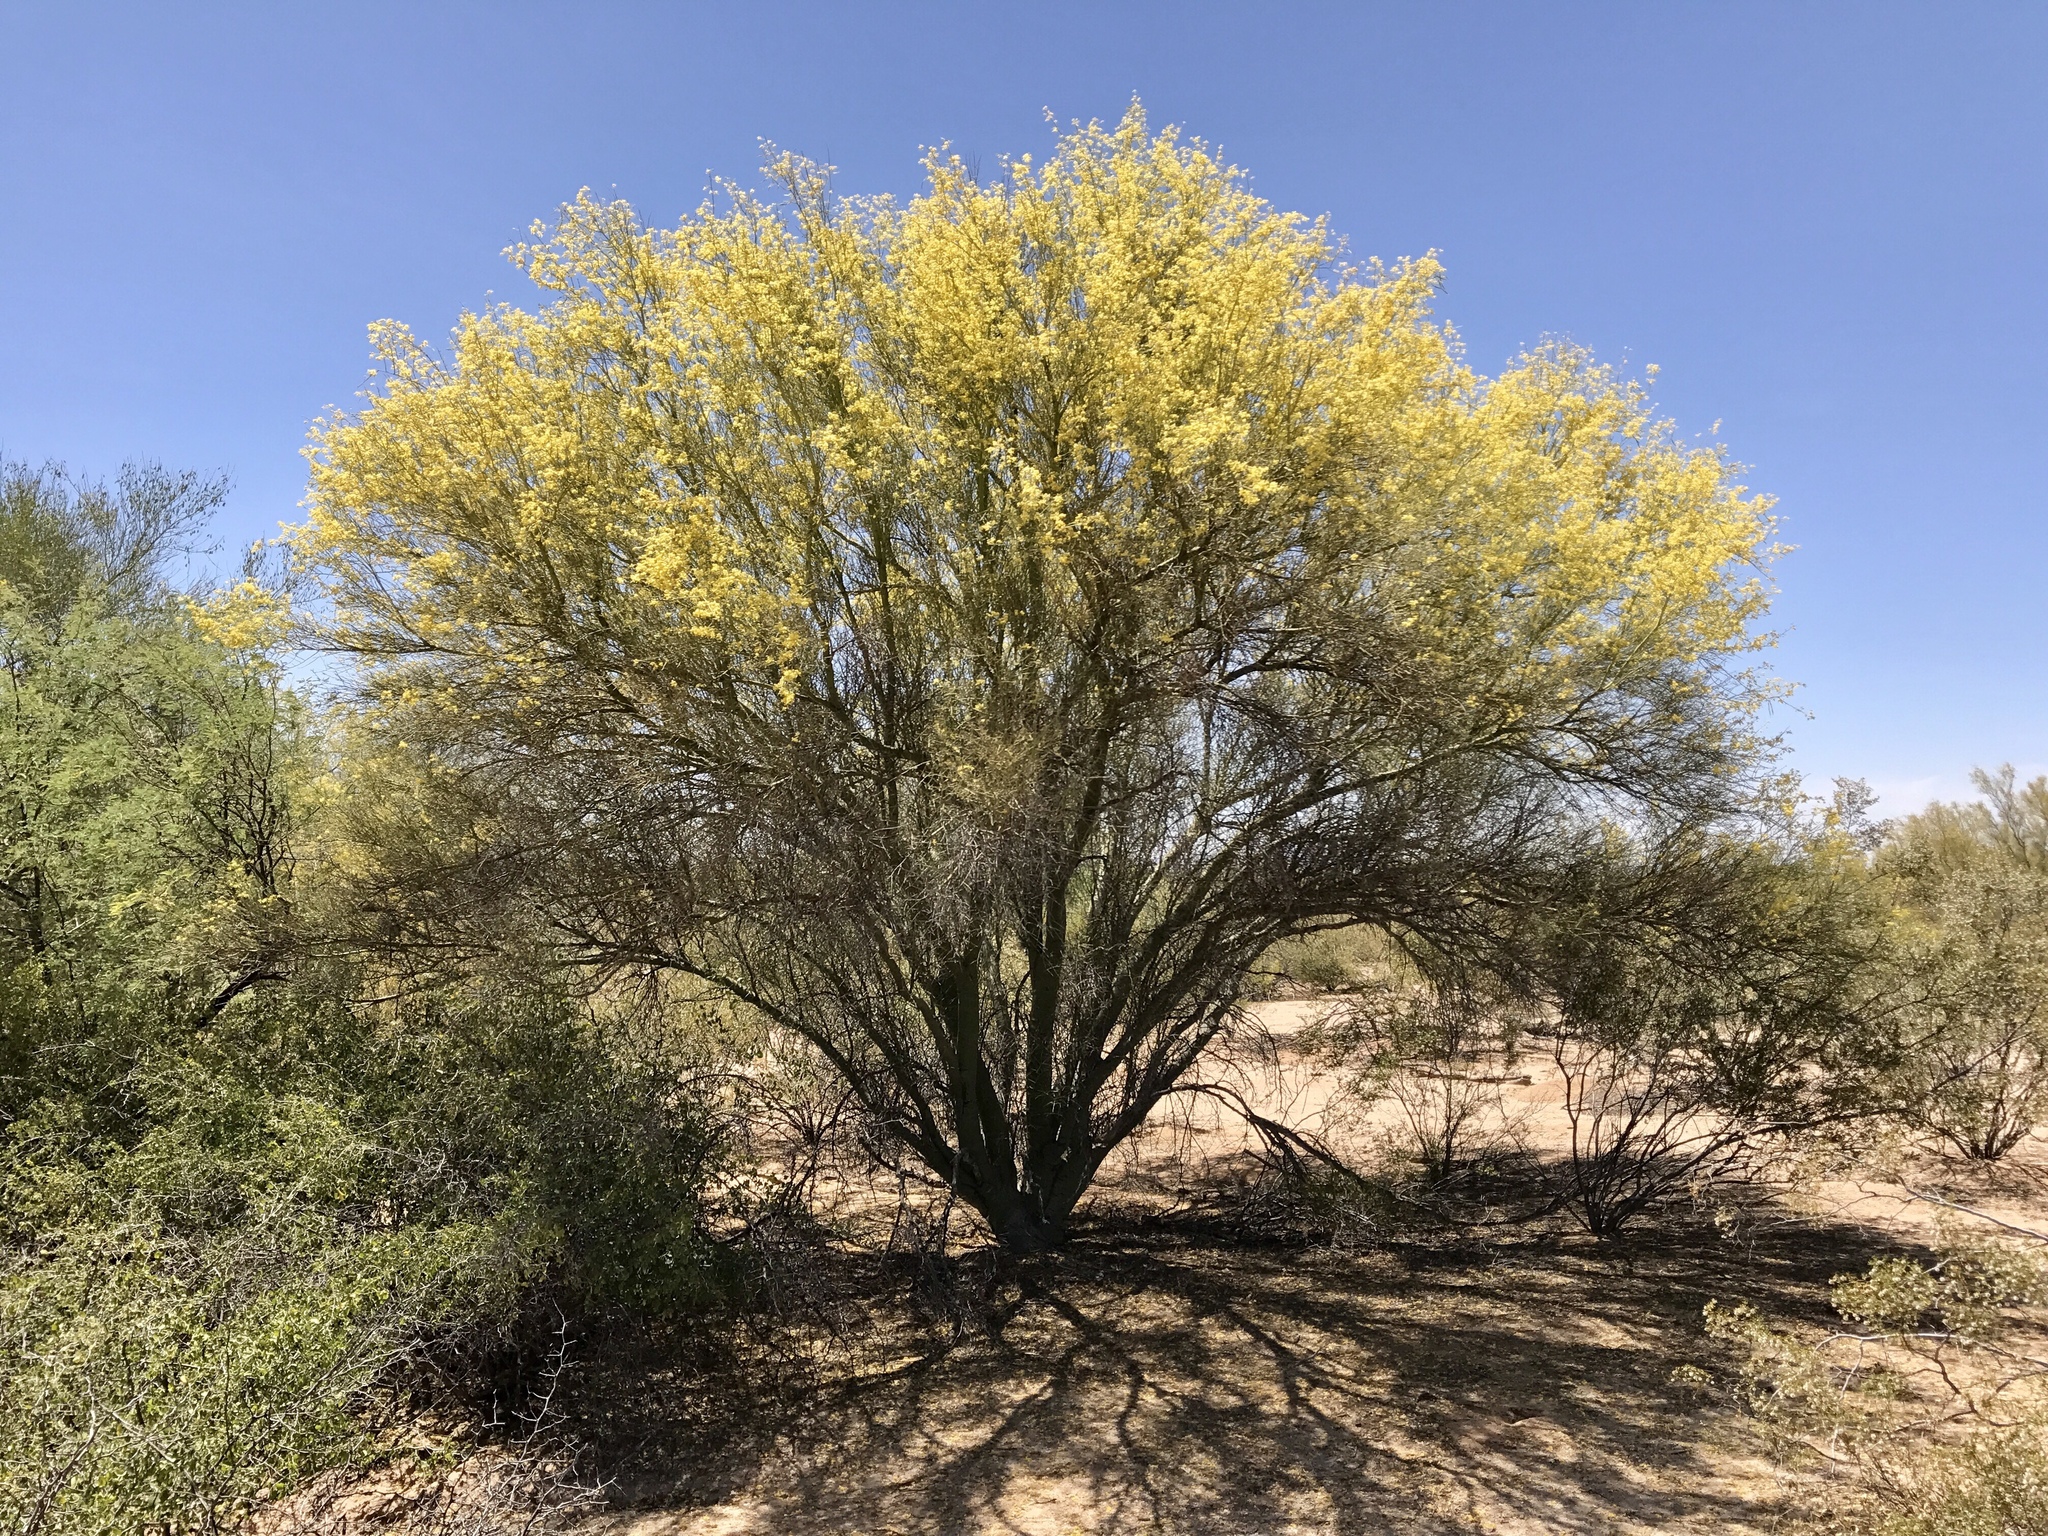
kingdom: Plantae
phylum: Tracheophyta
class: Magnoliopsida
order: Fabales
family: Fabaceae
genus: Parkinsonia
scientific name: Parkinsonia florida
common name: Blue paloverde
